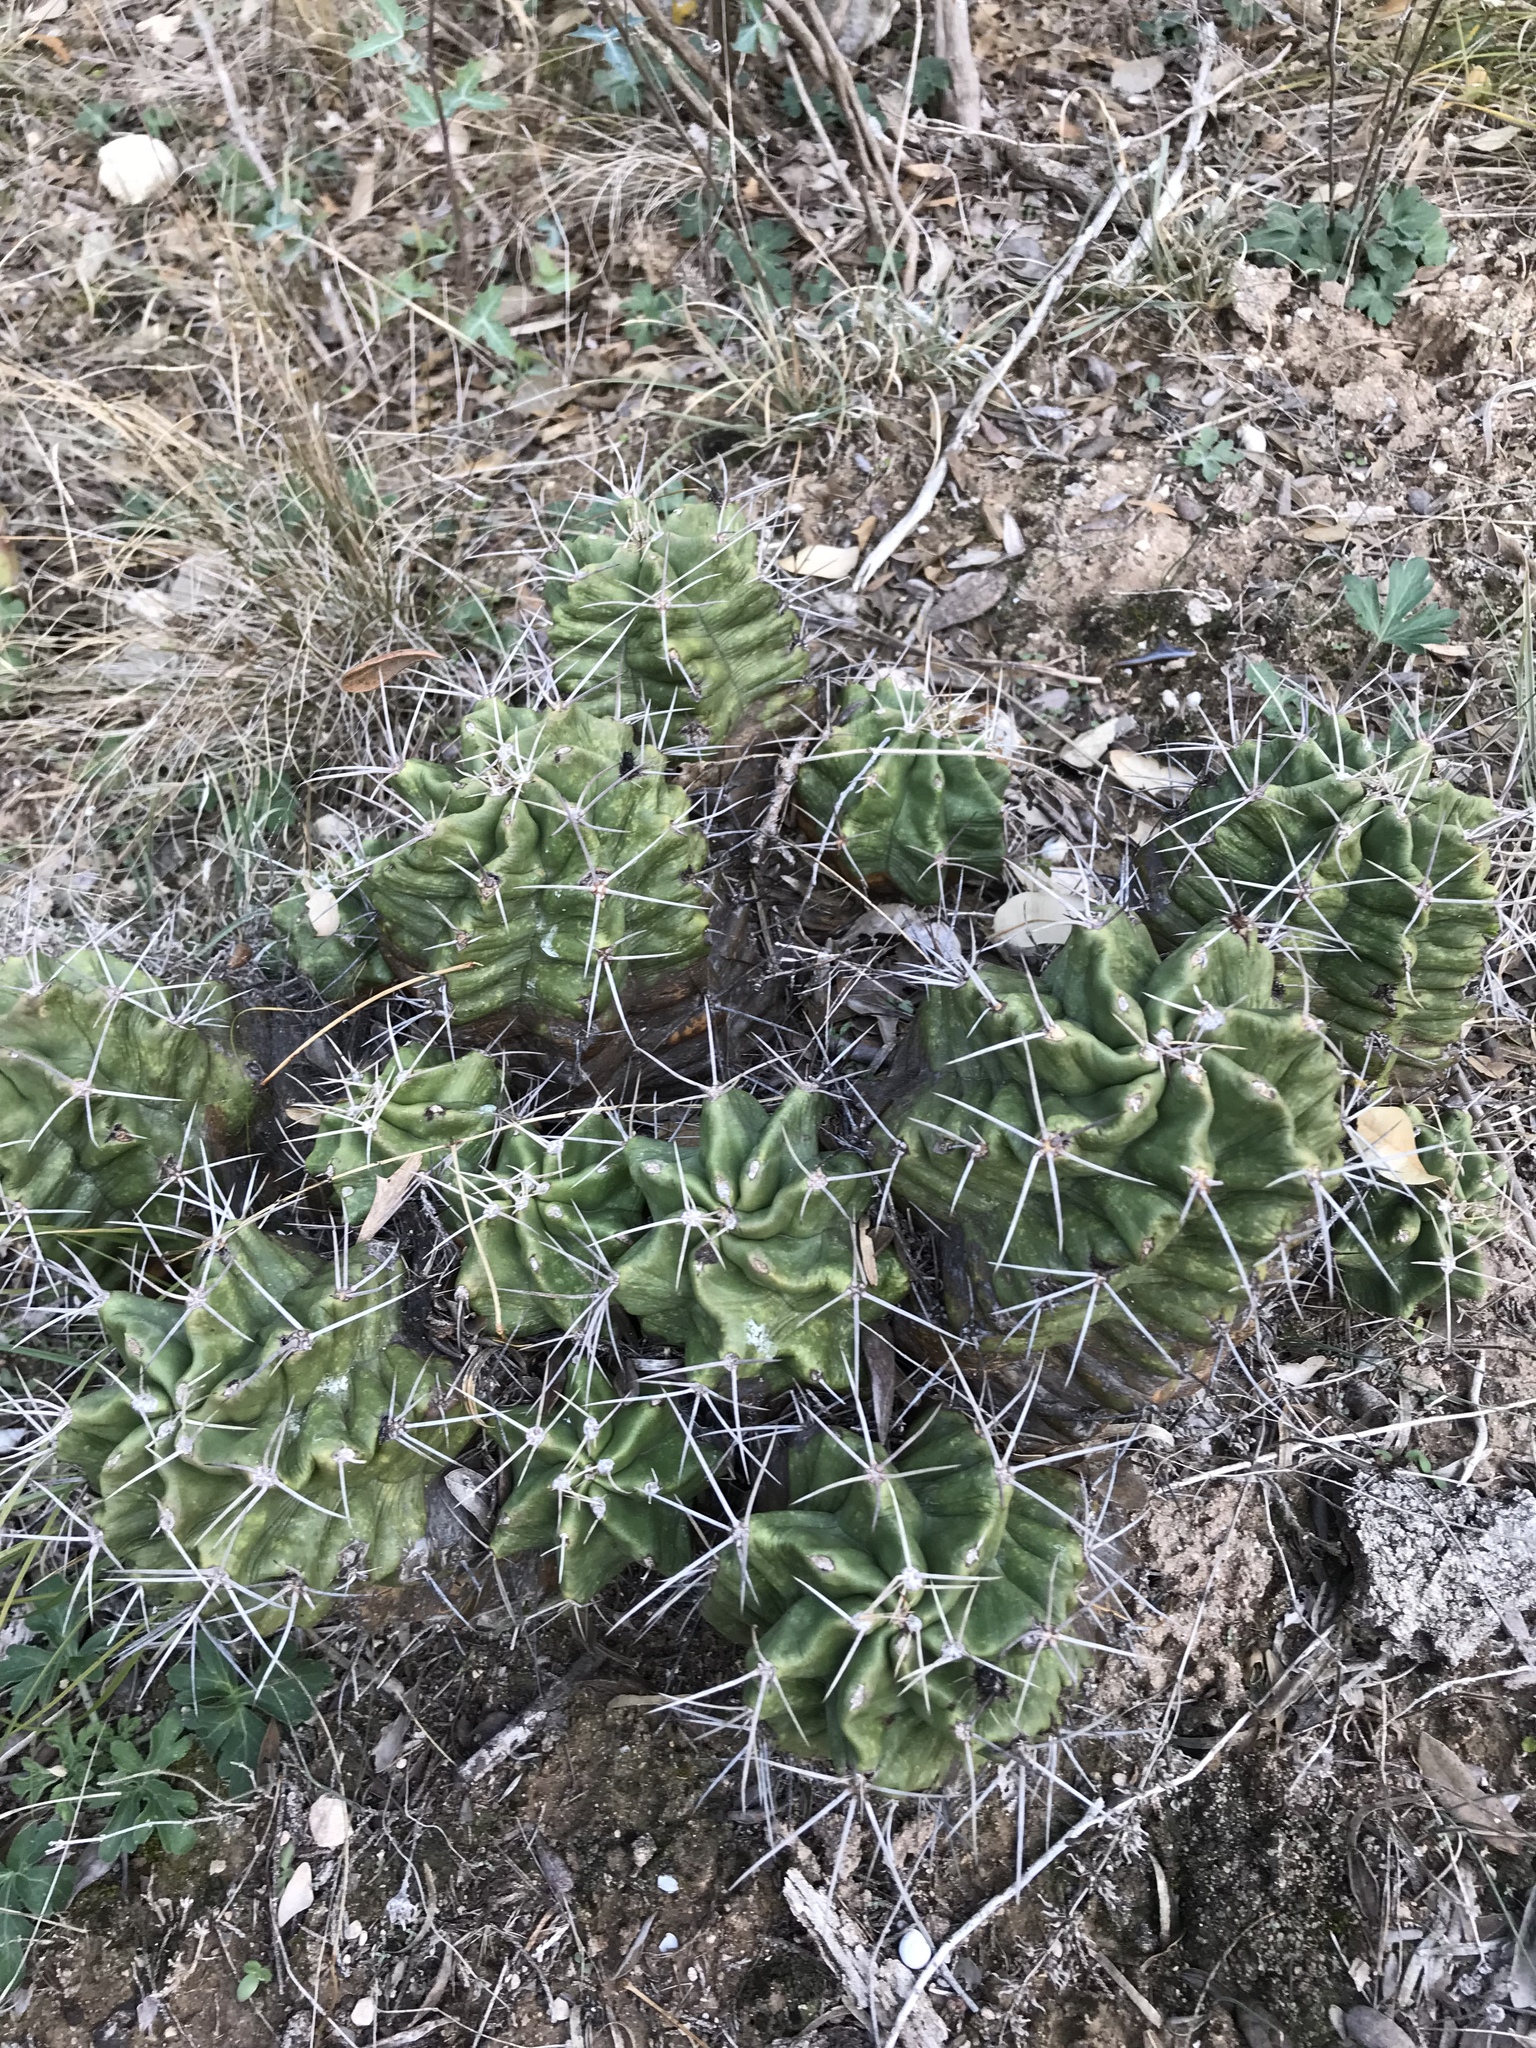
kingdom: Plantae
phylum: Tracheophyta
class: Magnoliopsida
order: Caryophyllales
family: Cactaceae
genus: Echinocereus
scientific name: Echinocereus coccineus
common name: Scarlet hedgehog cactus
